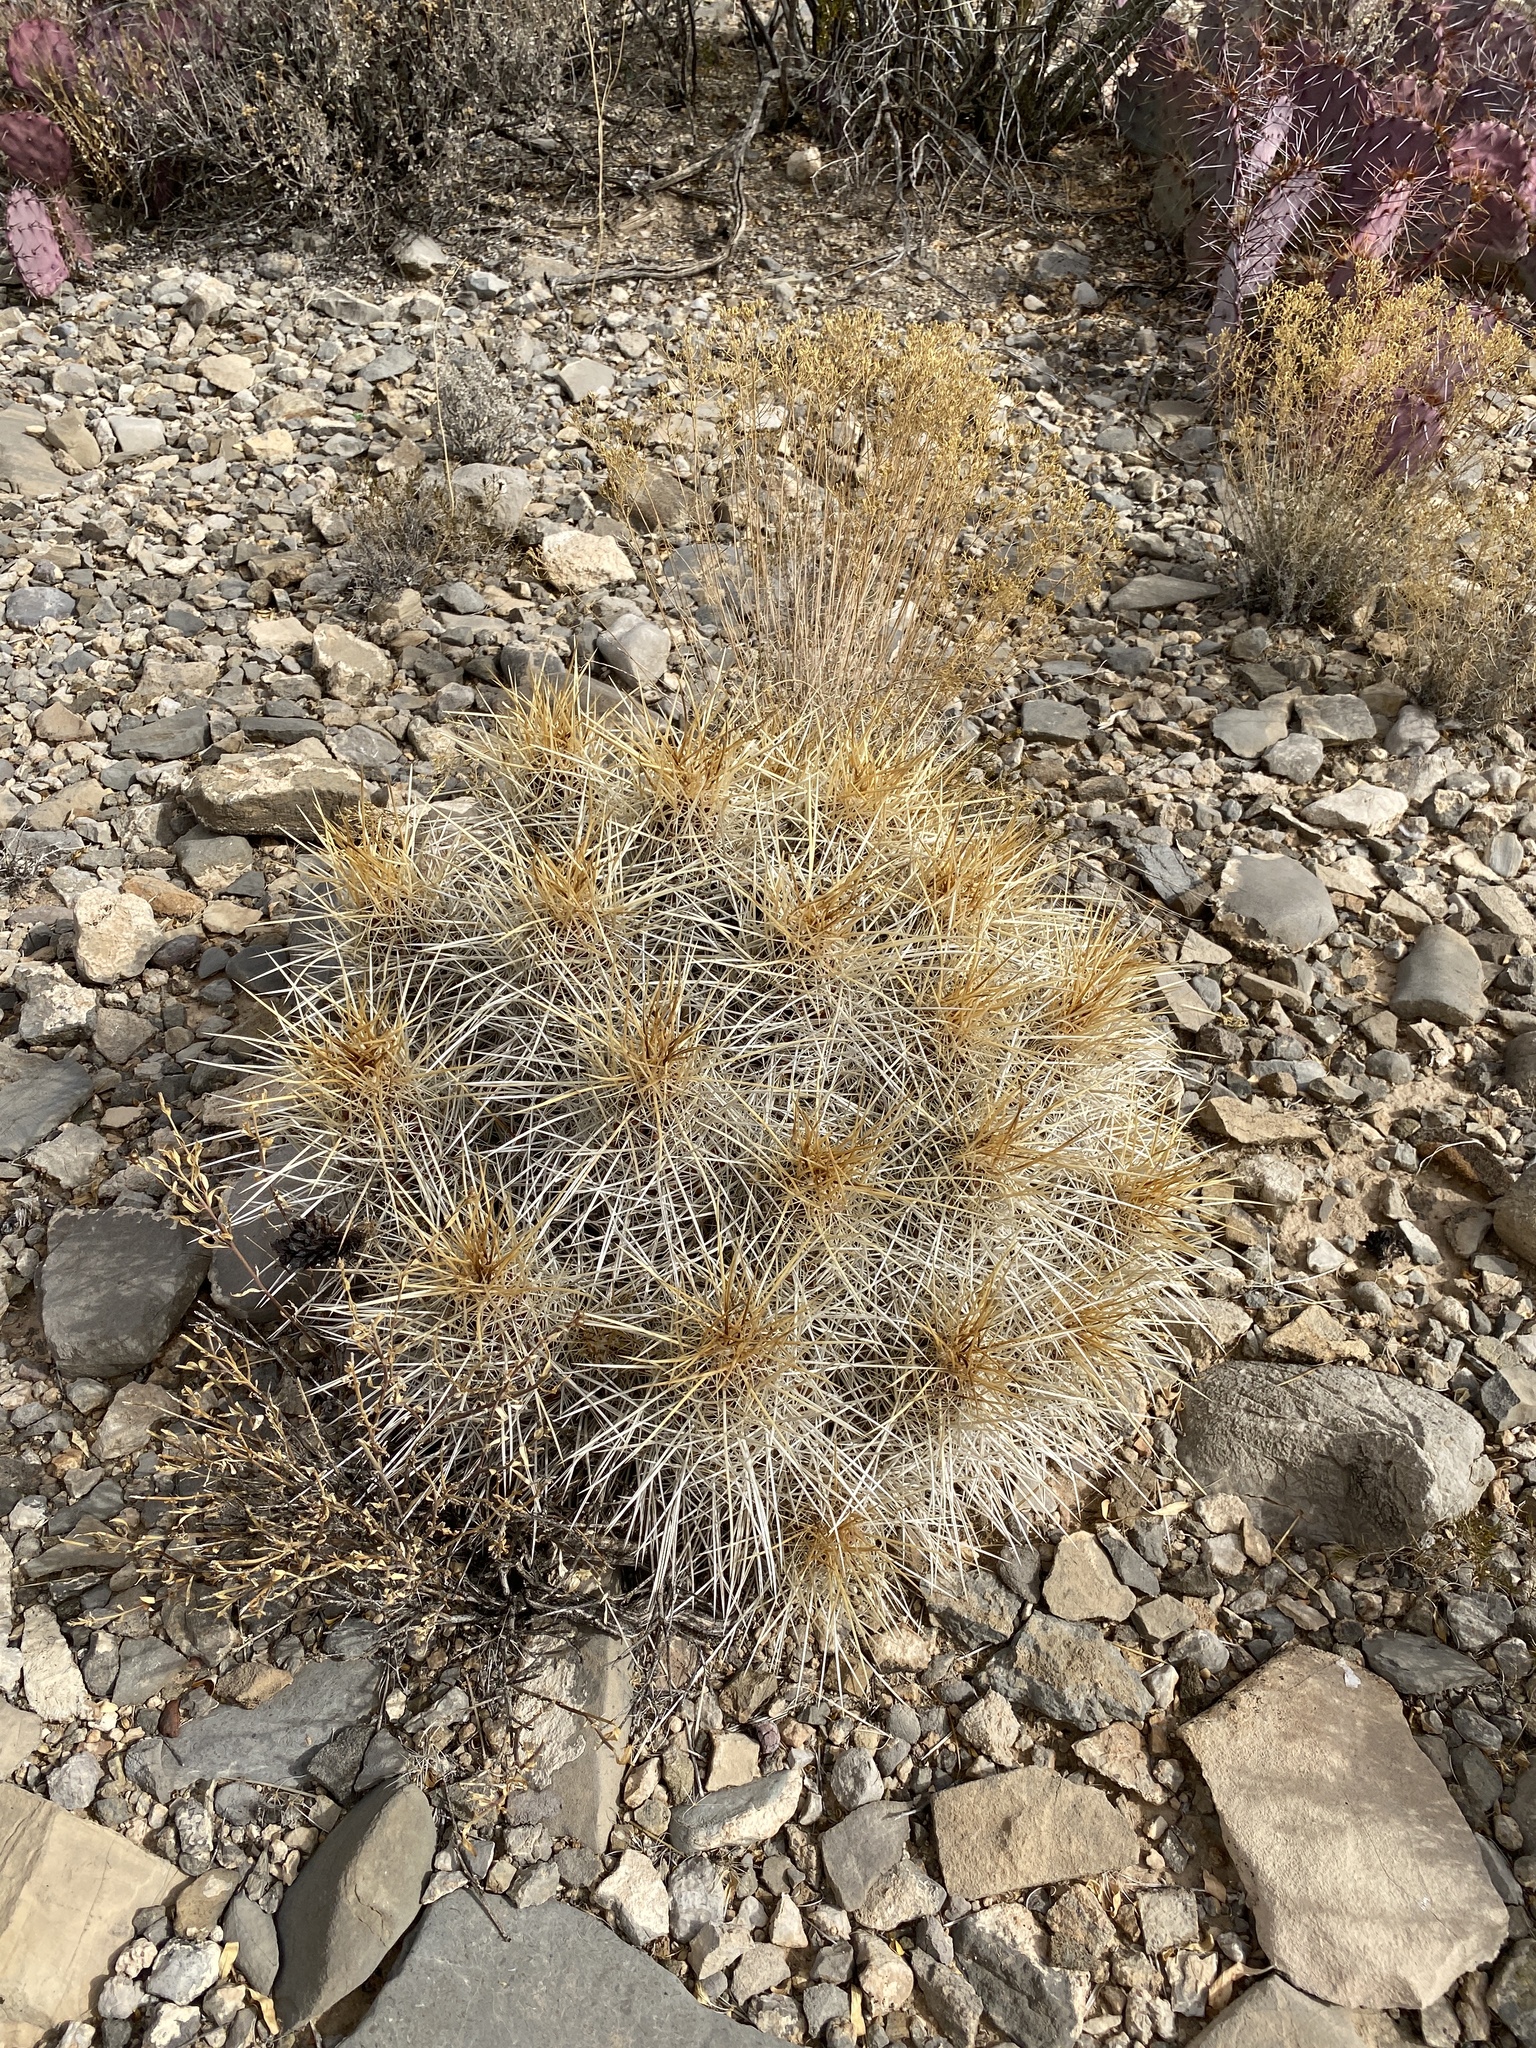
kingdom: Plantae
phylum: Tracheophyta
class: Magnoliopsida
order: Caryophyllales
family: Cactaceae
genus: Echinocereus
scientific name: Echinocereus stramineus
